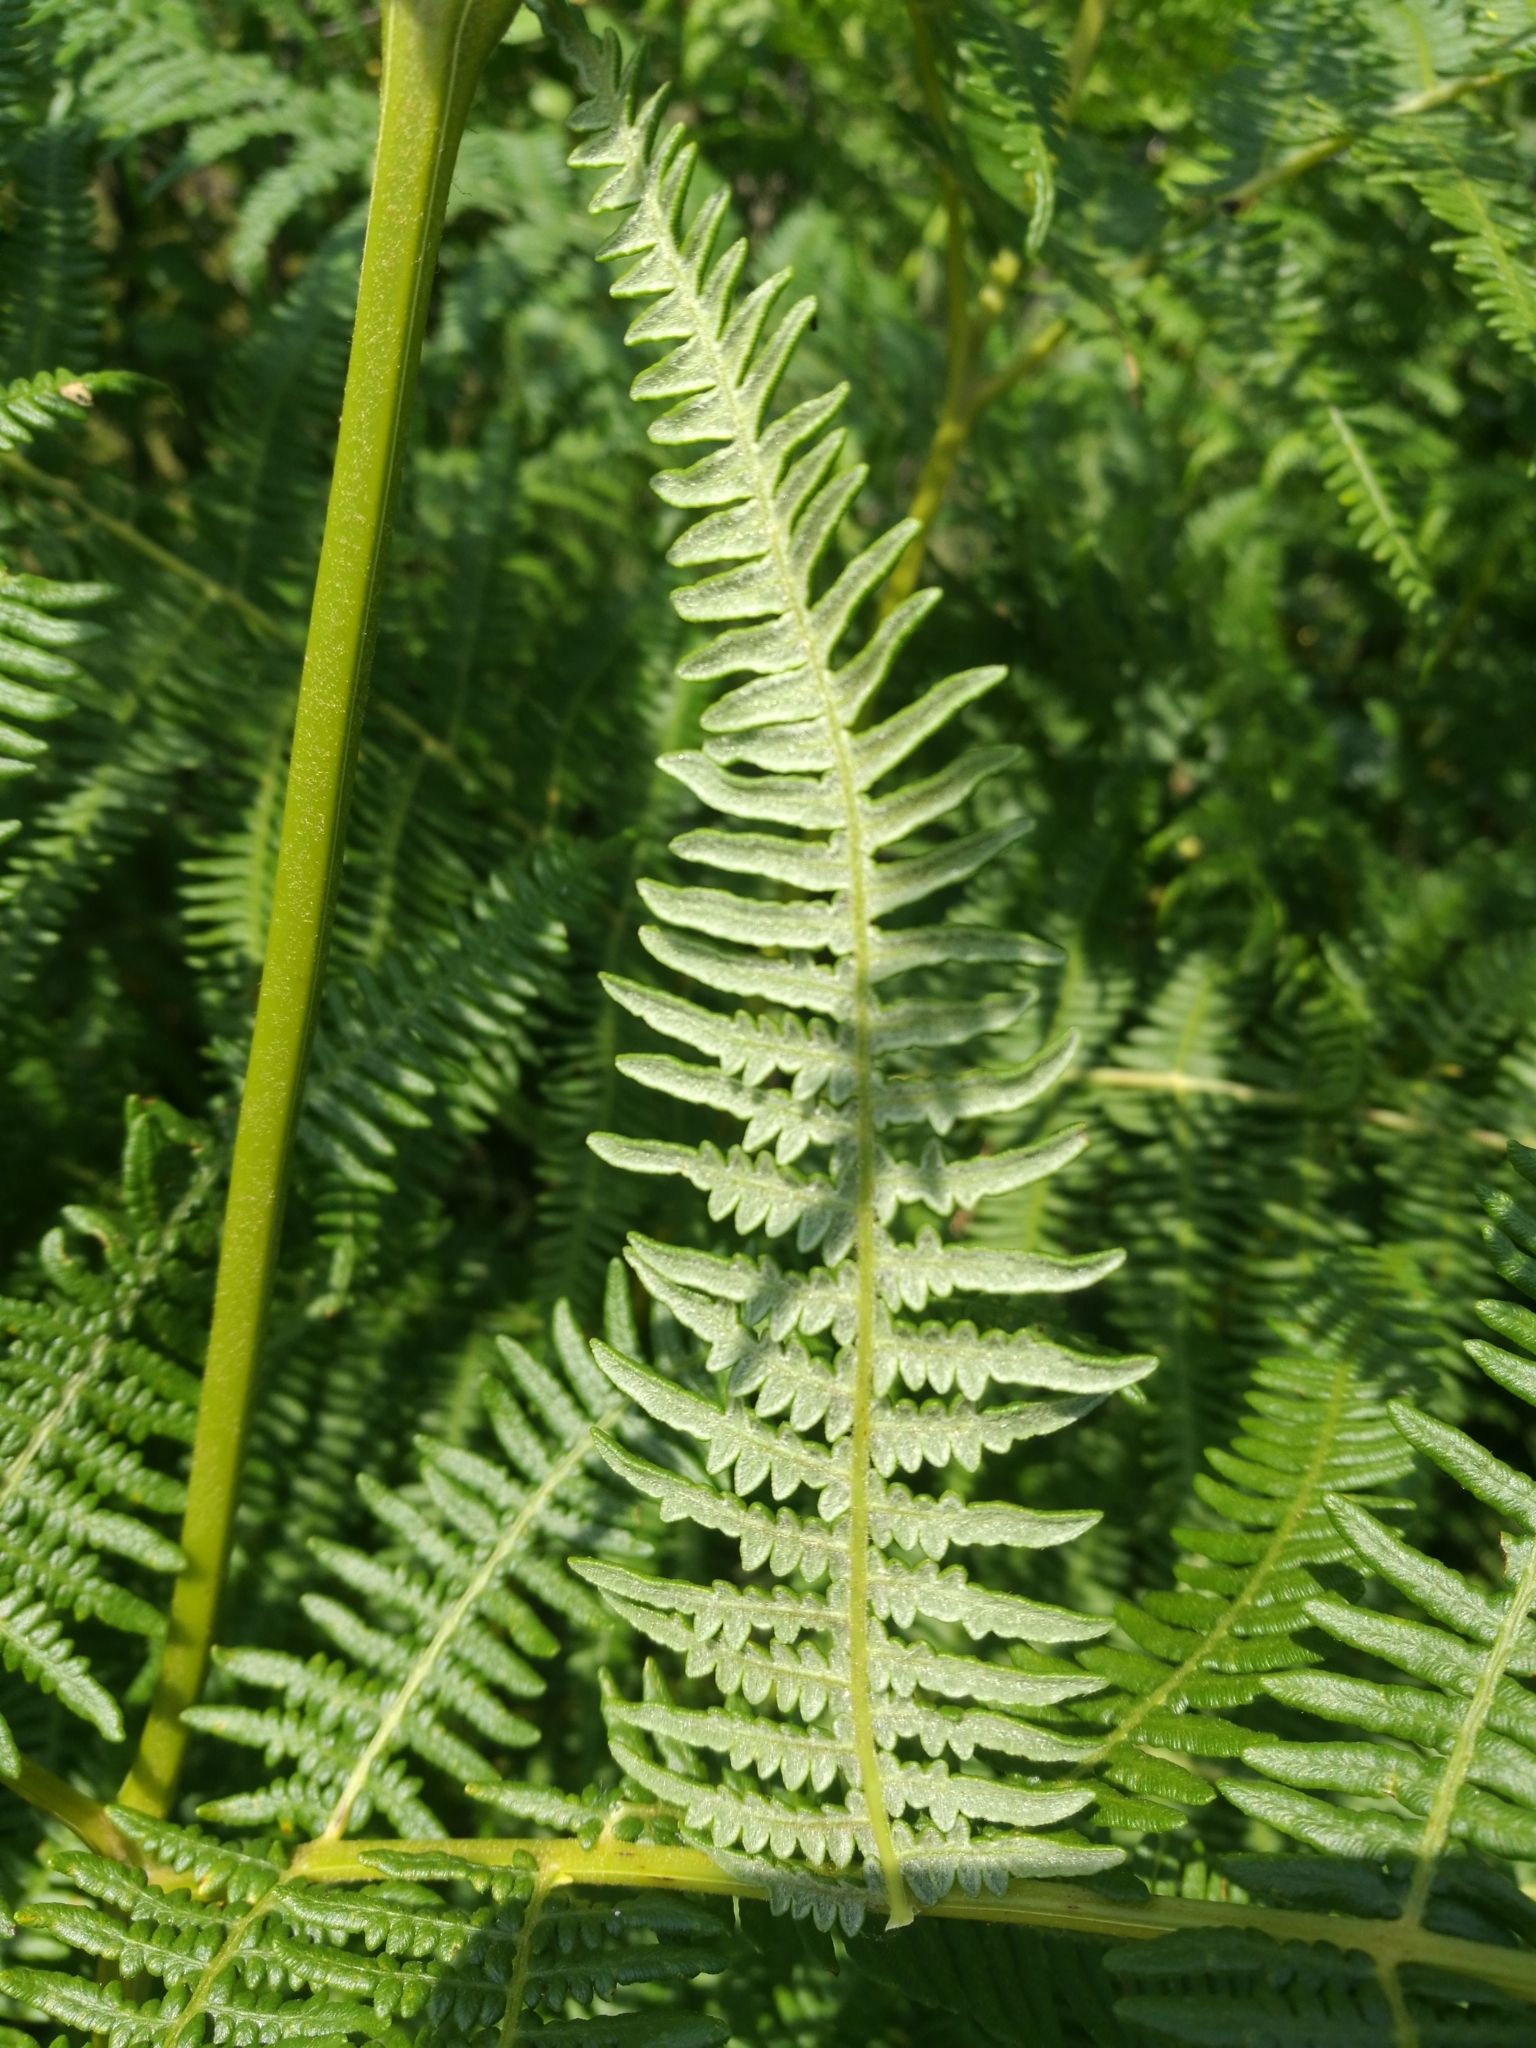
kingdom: Plantae
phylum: Tracheophyta
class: Polypodiopsida
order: Polypodiales
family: Dennstaedtiaceae
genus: Pteridium
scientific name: Pteridium aquilinum
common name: Bracken
